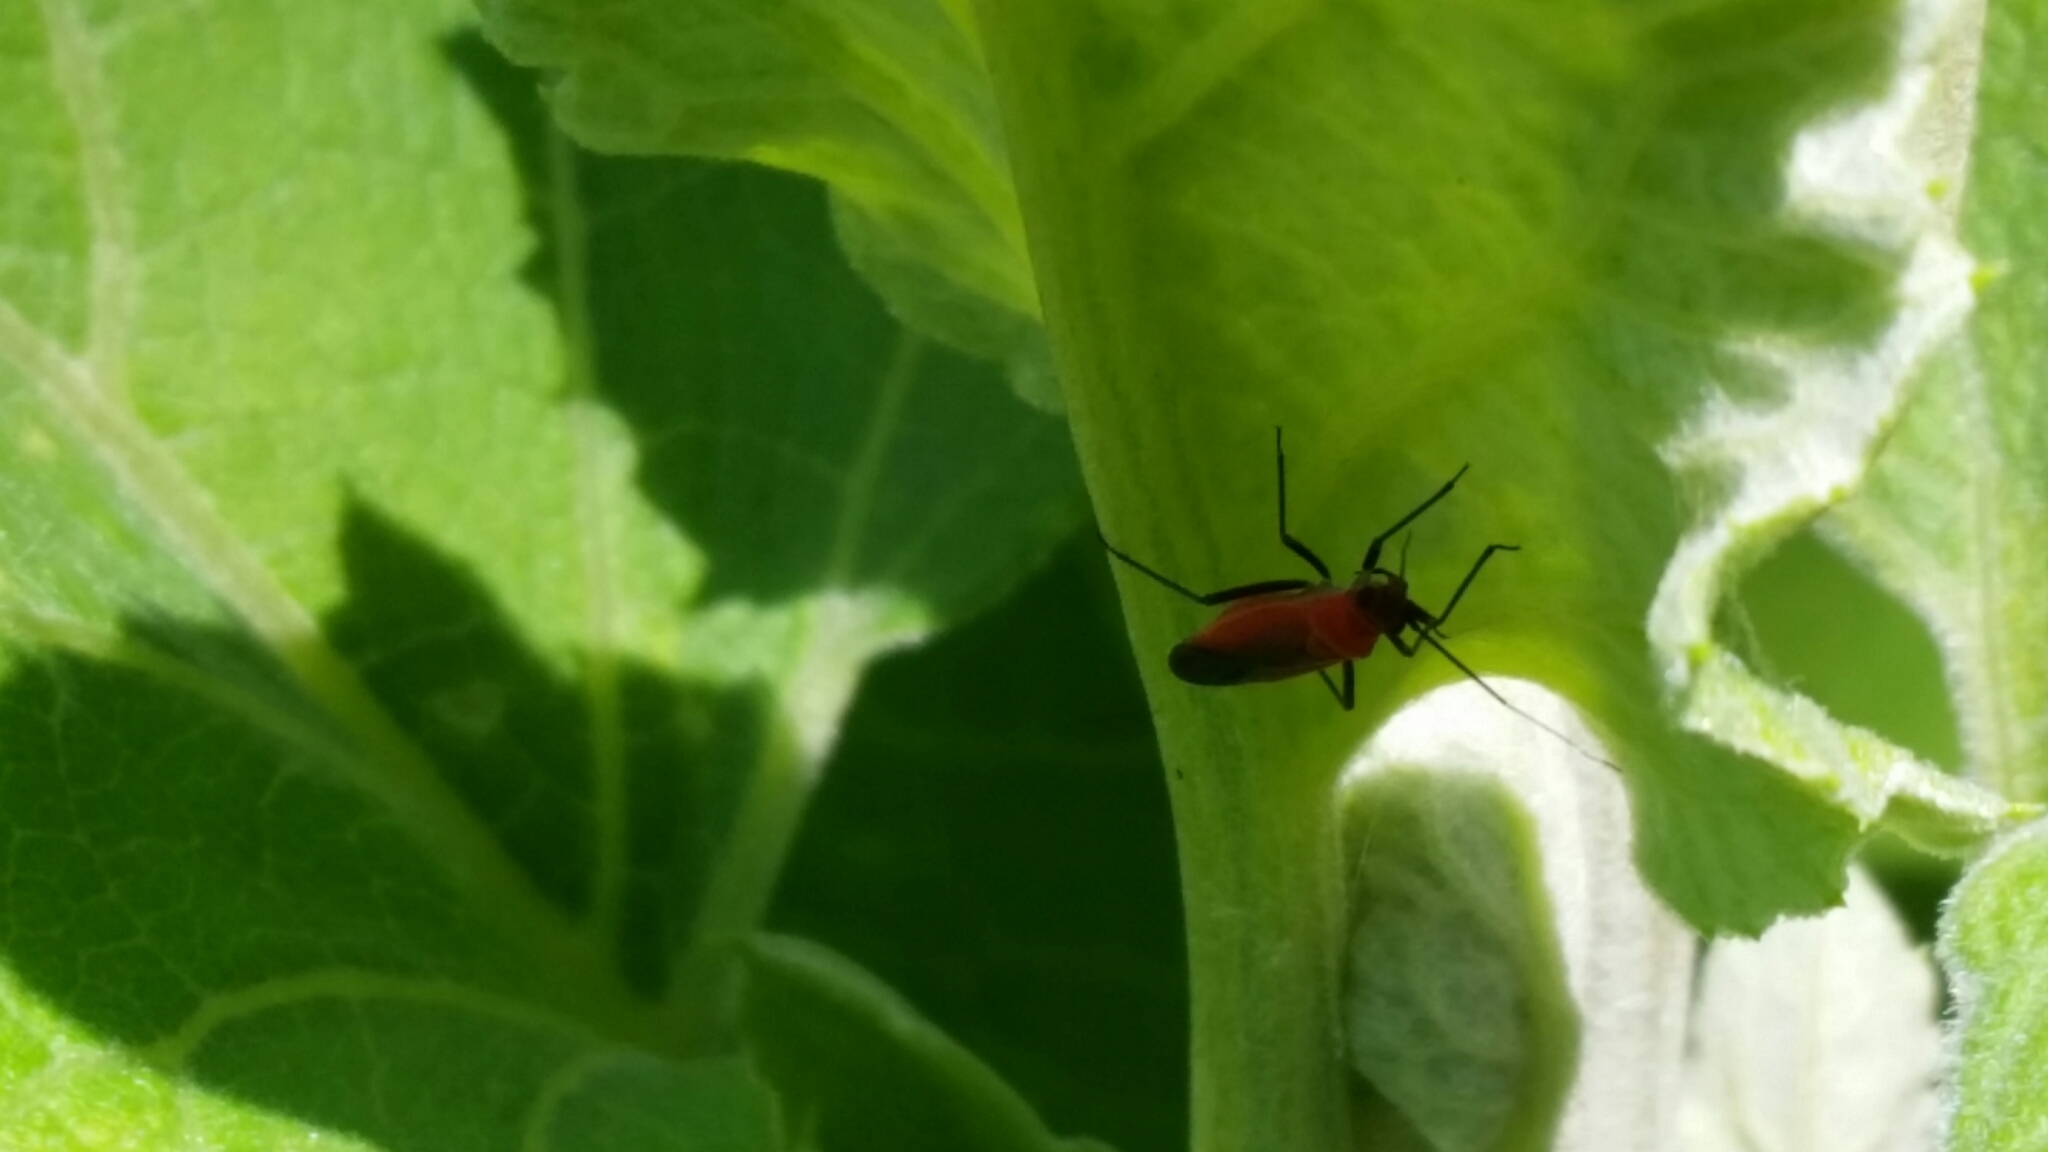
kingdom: Animalia
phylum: Arthropoda
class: Insecta
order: Hemiptera
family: Miridae
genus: Lopidea
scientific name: Lopidea
